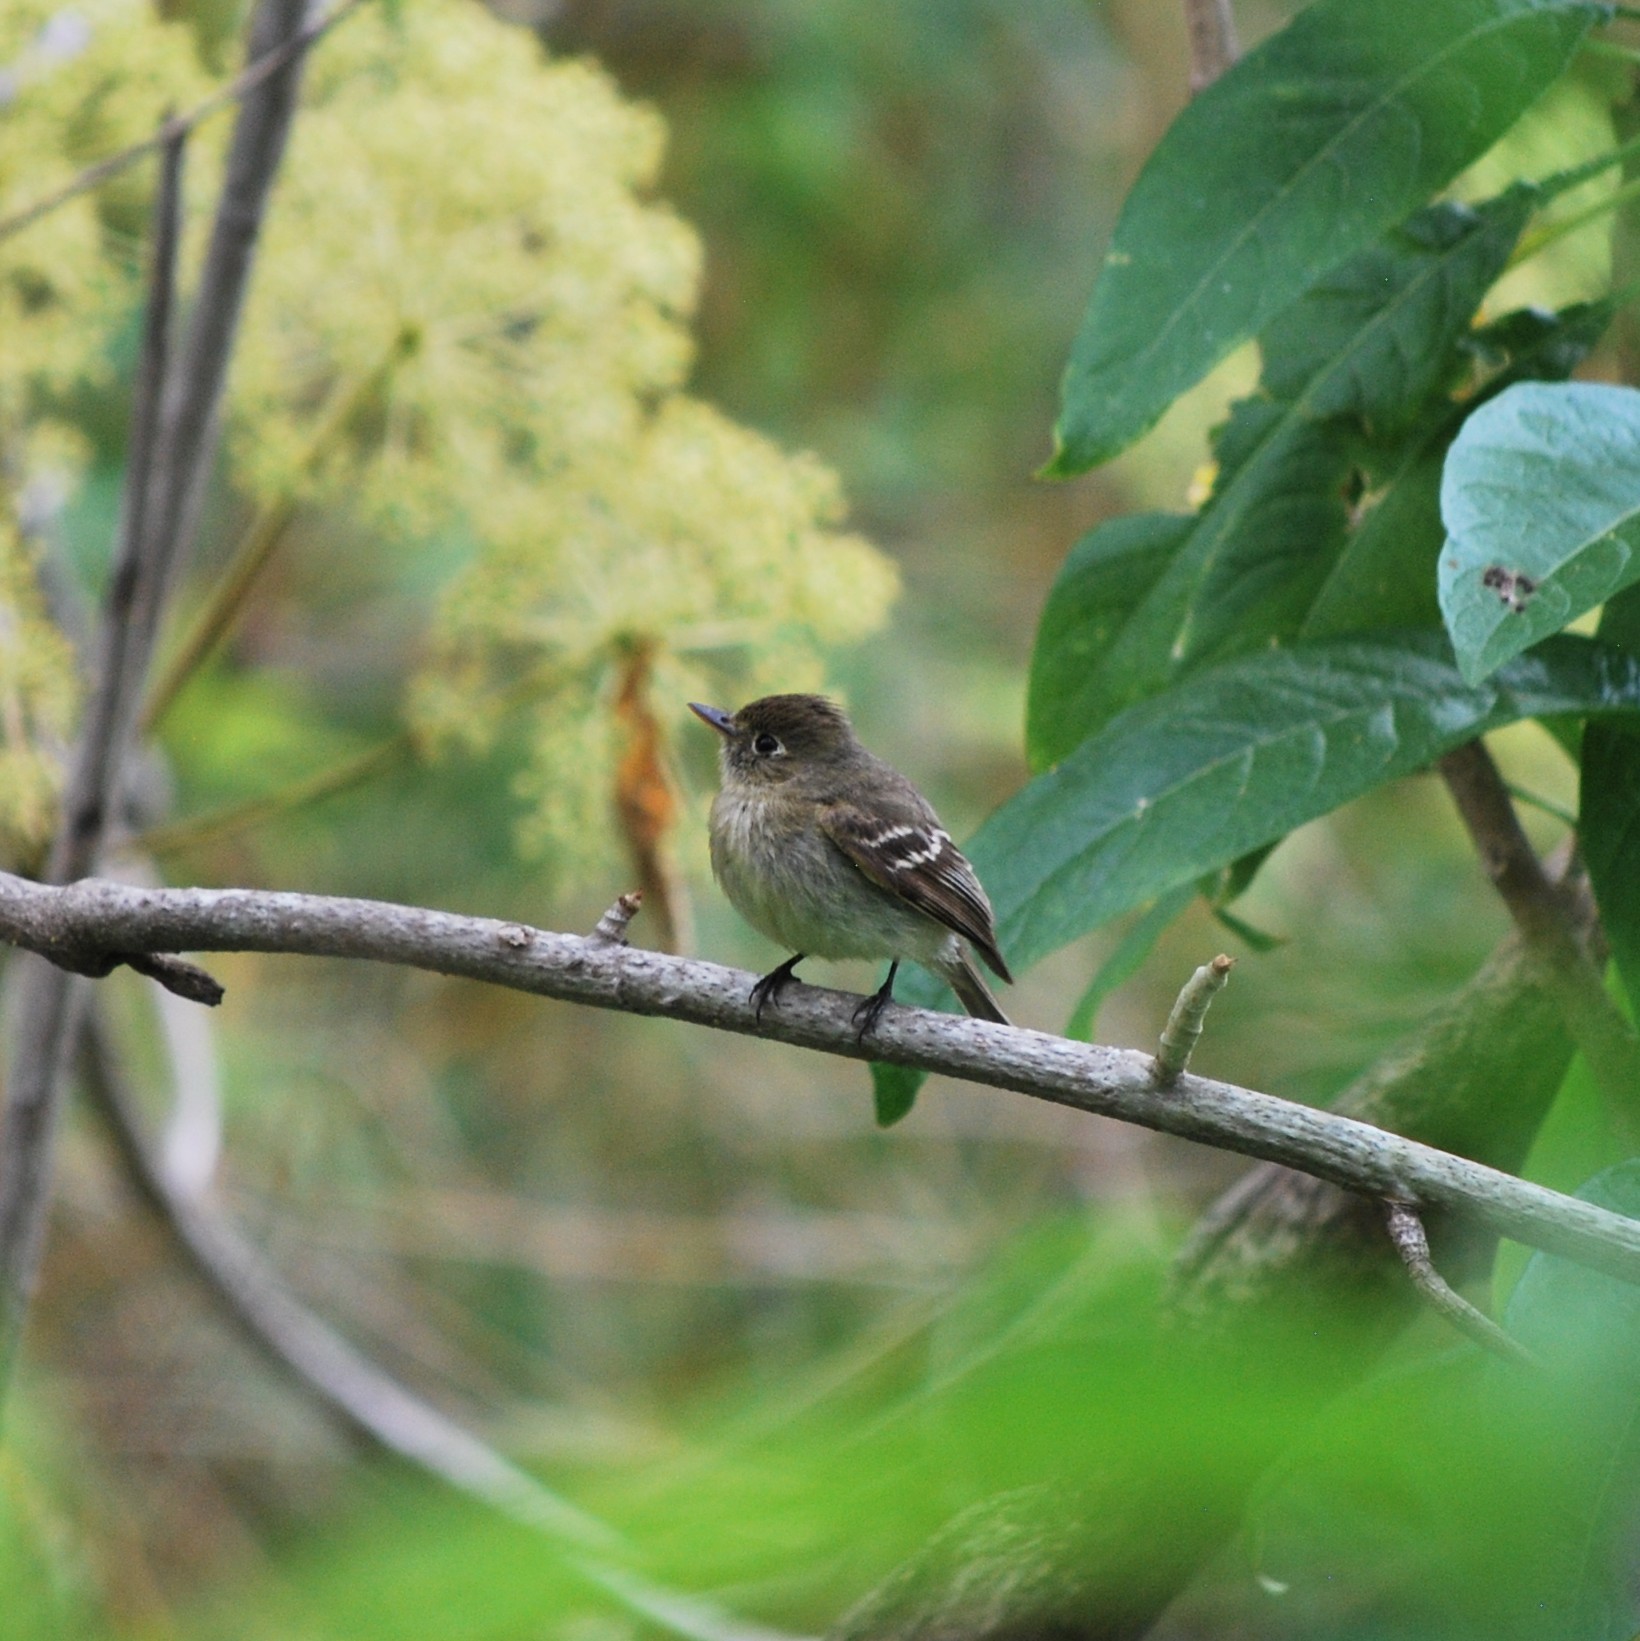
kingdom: Animalia
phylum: Chordata
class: Aves
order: Passeriformes
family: Tyrannidae
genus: Empidonax
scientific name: Empidonax difficilis
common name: Pacific-slope flycatcher
